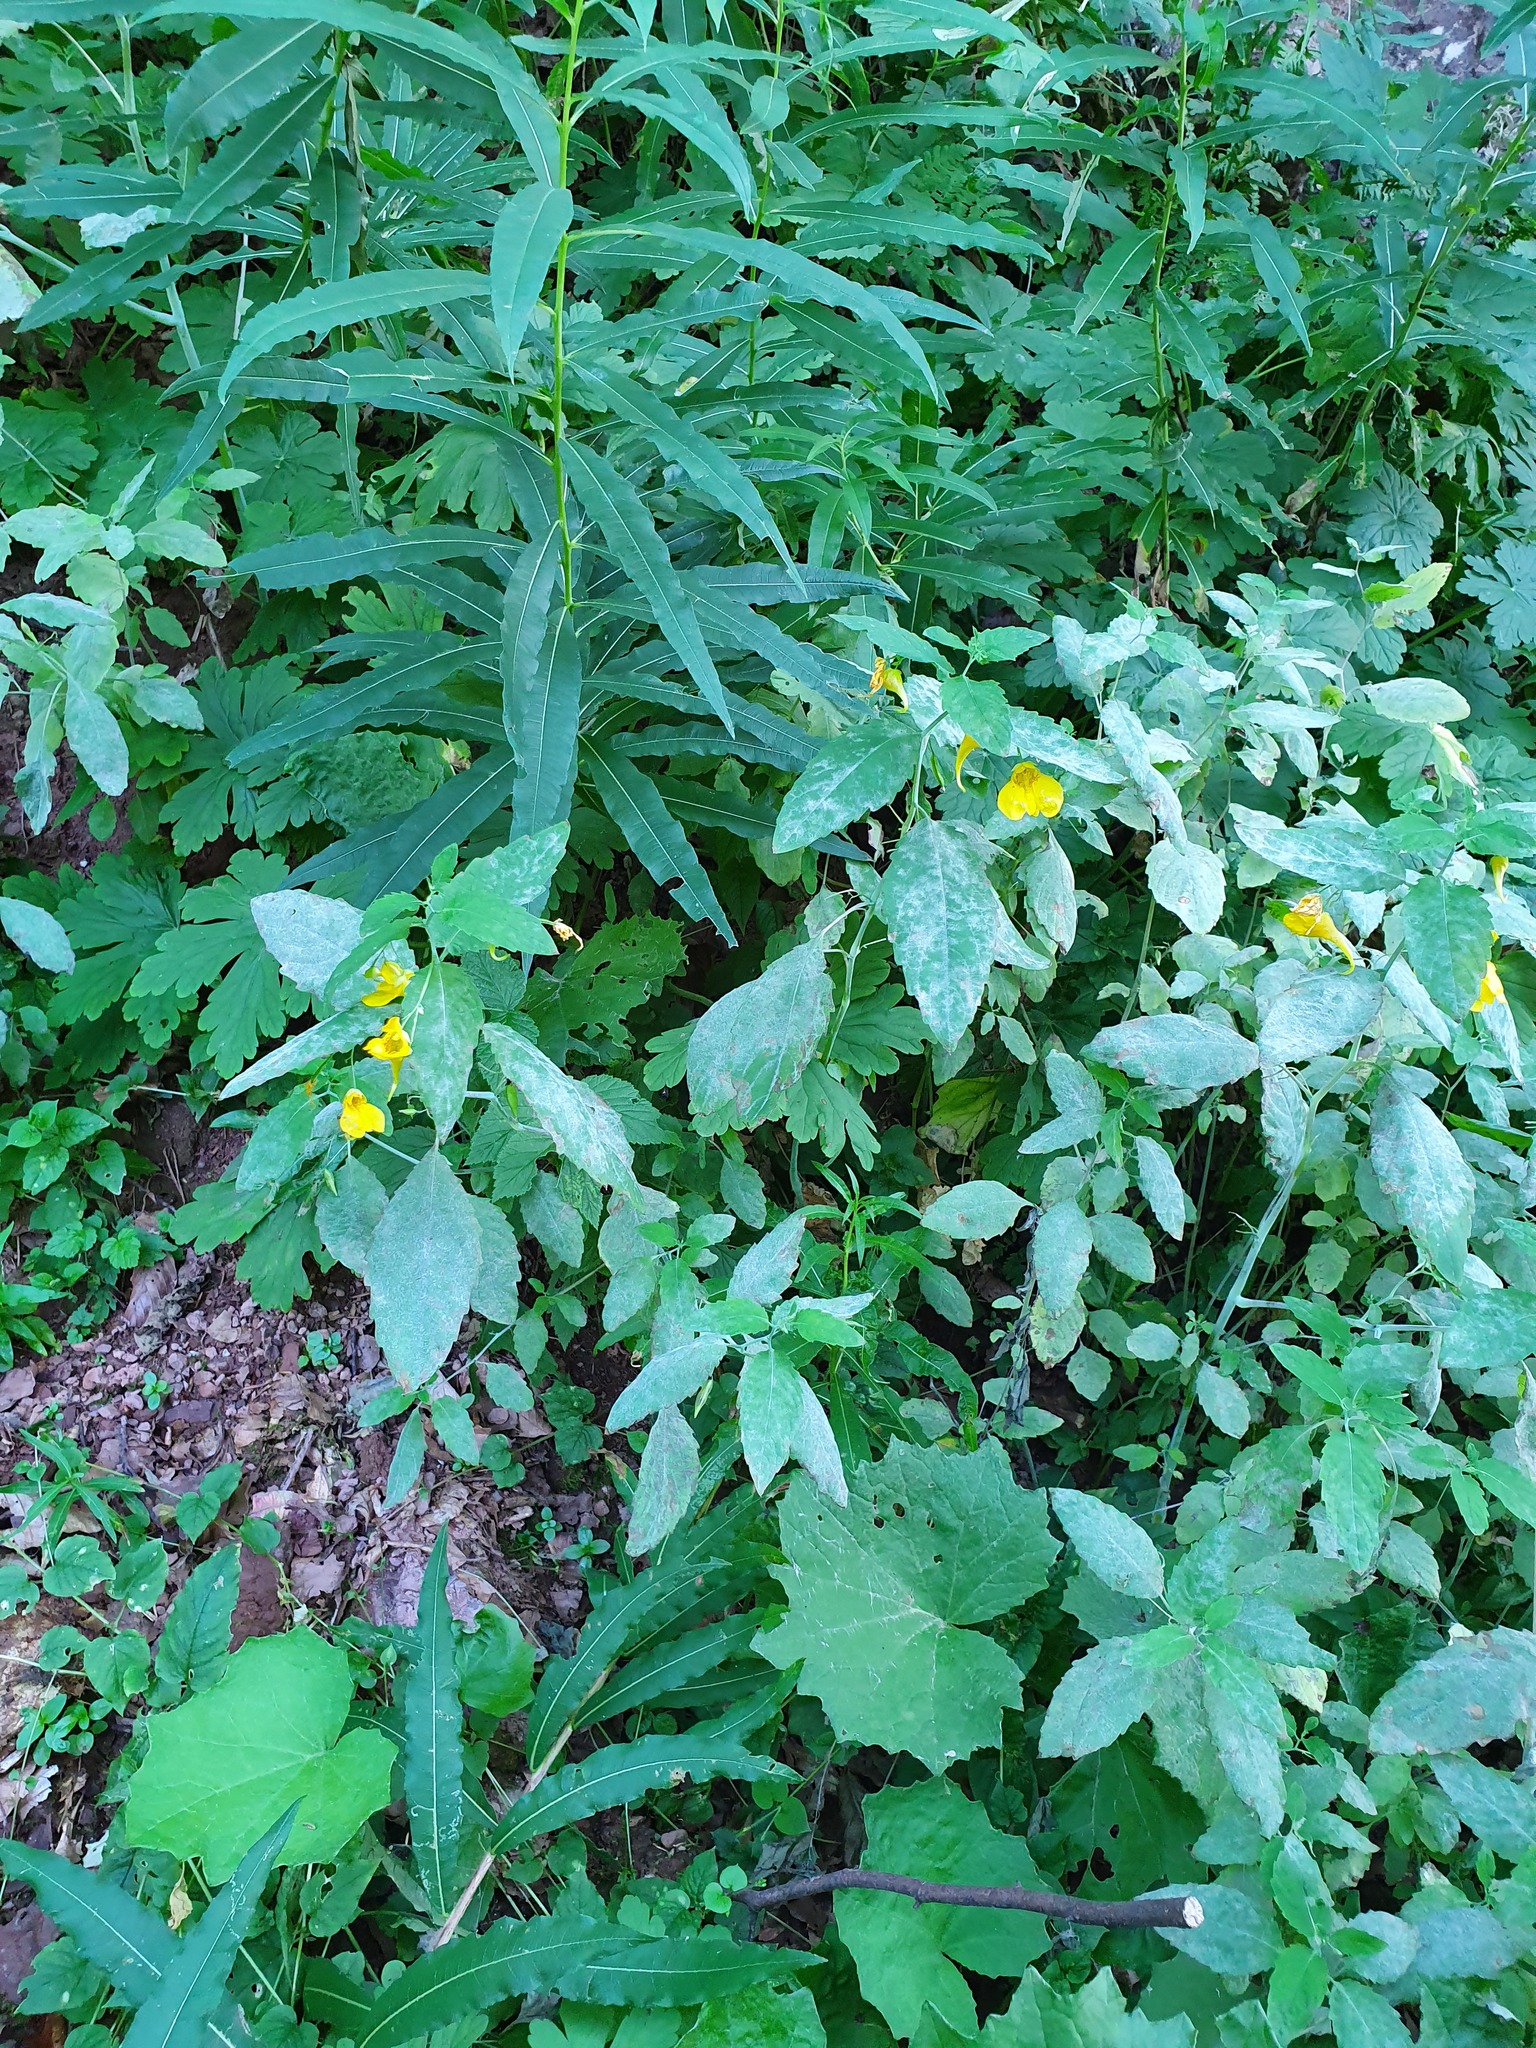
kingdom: Plantae
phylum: Tracheophyta
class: Magnoliopsida
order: Ericales
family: Balsaminaceae
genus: Impatiens
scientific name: Impatiens noli-tangere
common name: Touch-me-not balsam
